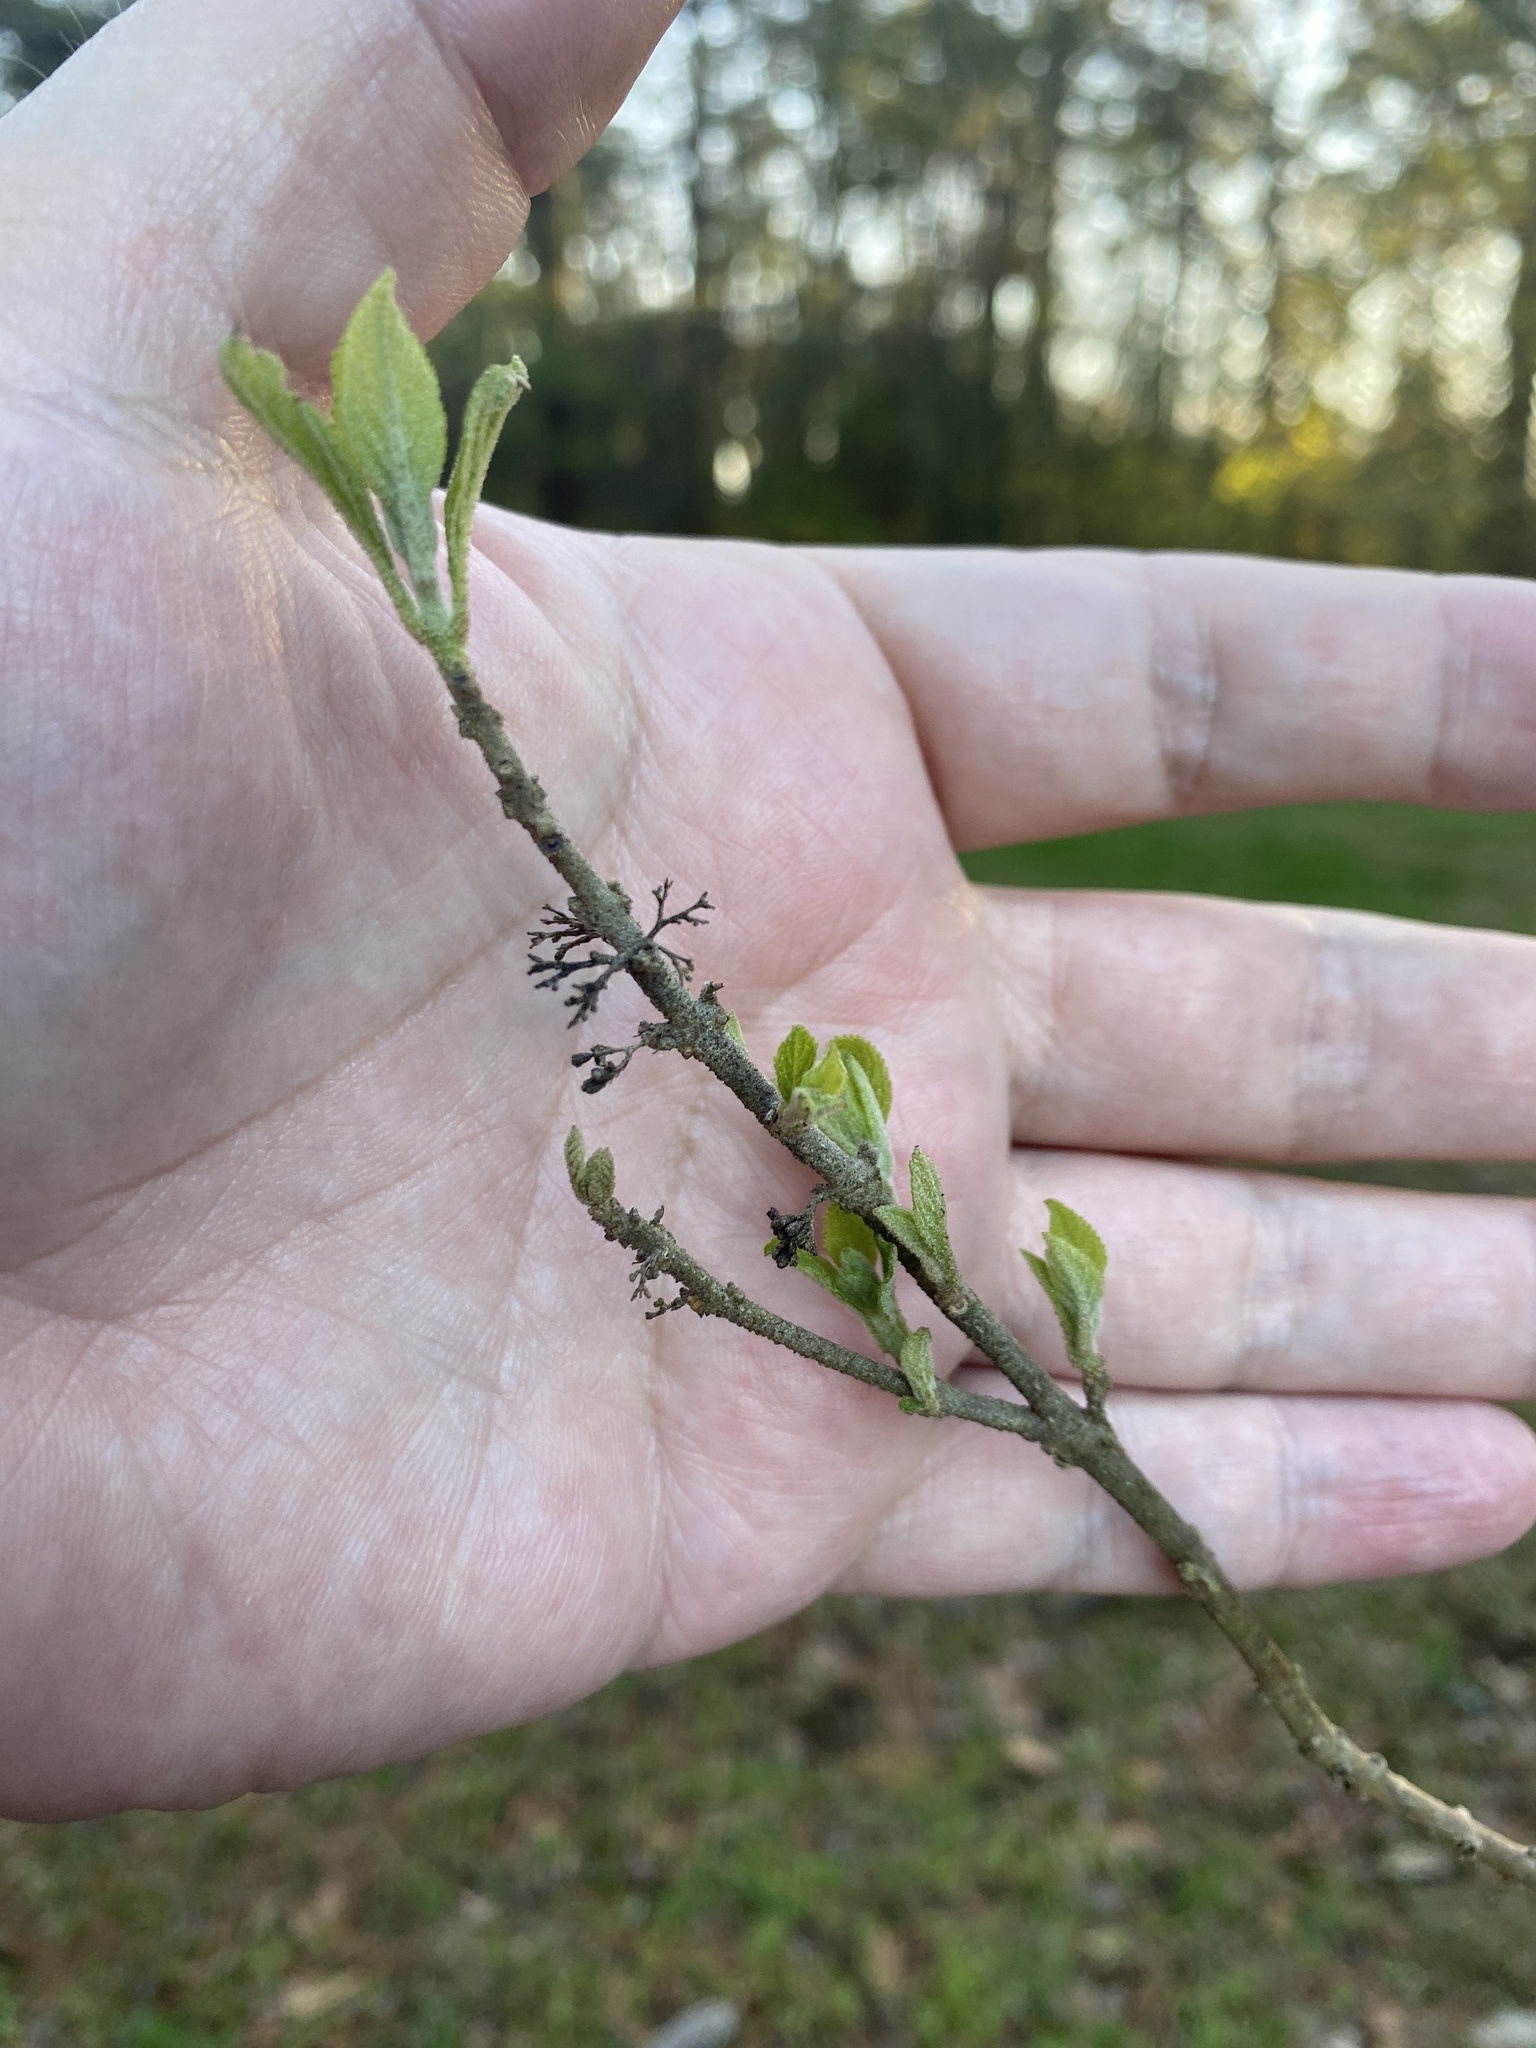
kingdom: Plantae
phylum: Tracheophyta
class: Magnoliopsida
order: Lamiales
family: Lamiaceae
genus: Callicarpa
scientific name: Callicarpa americana
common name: American beautyberry
